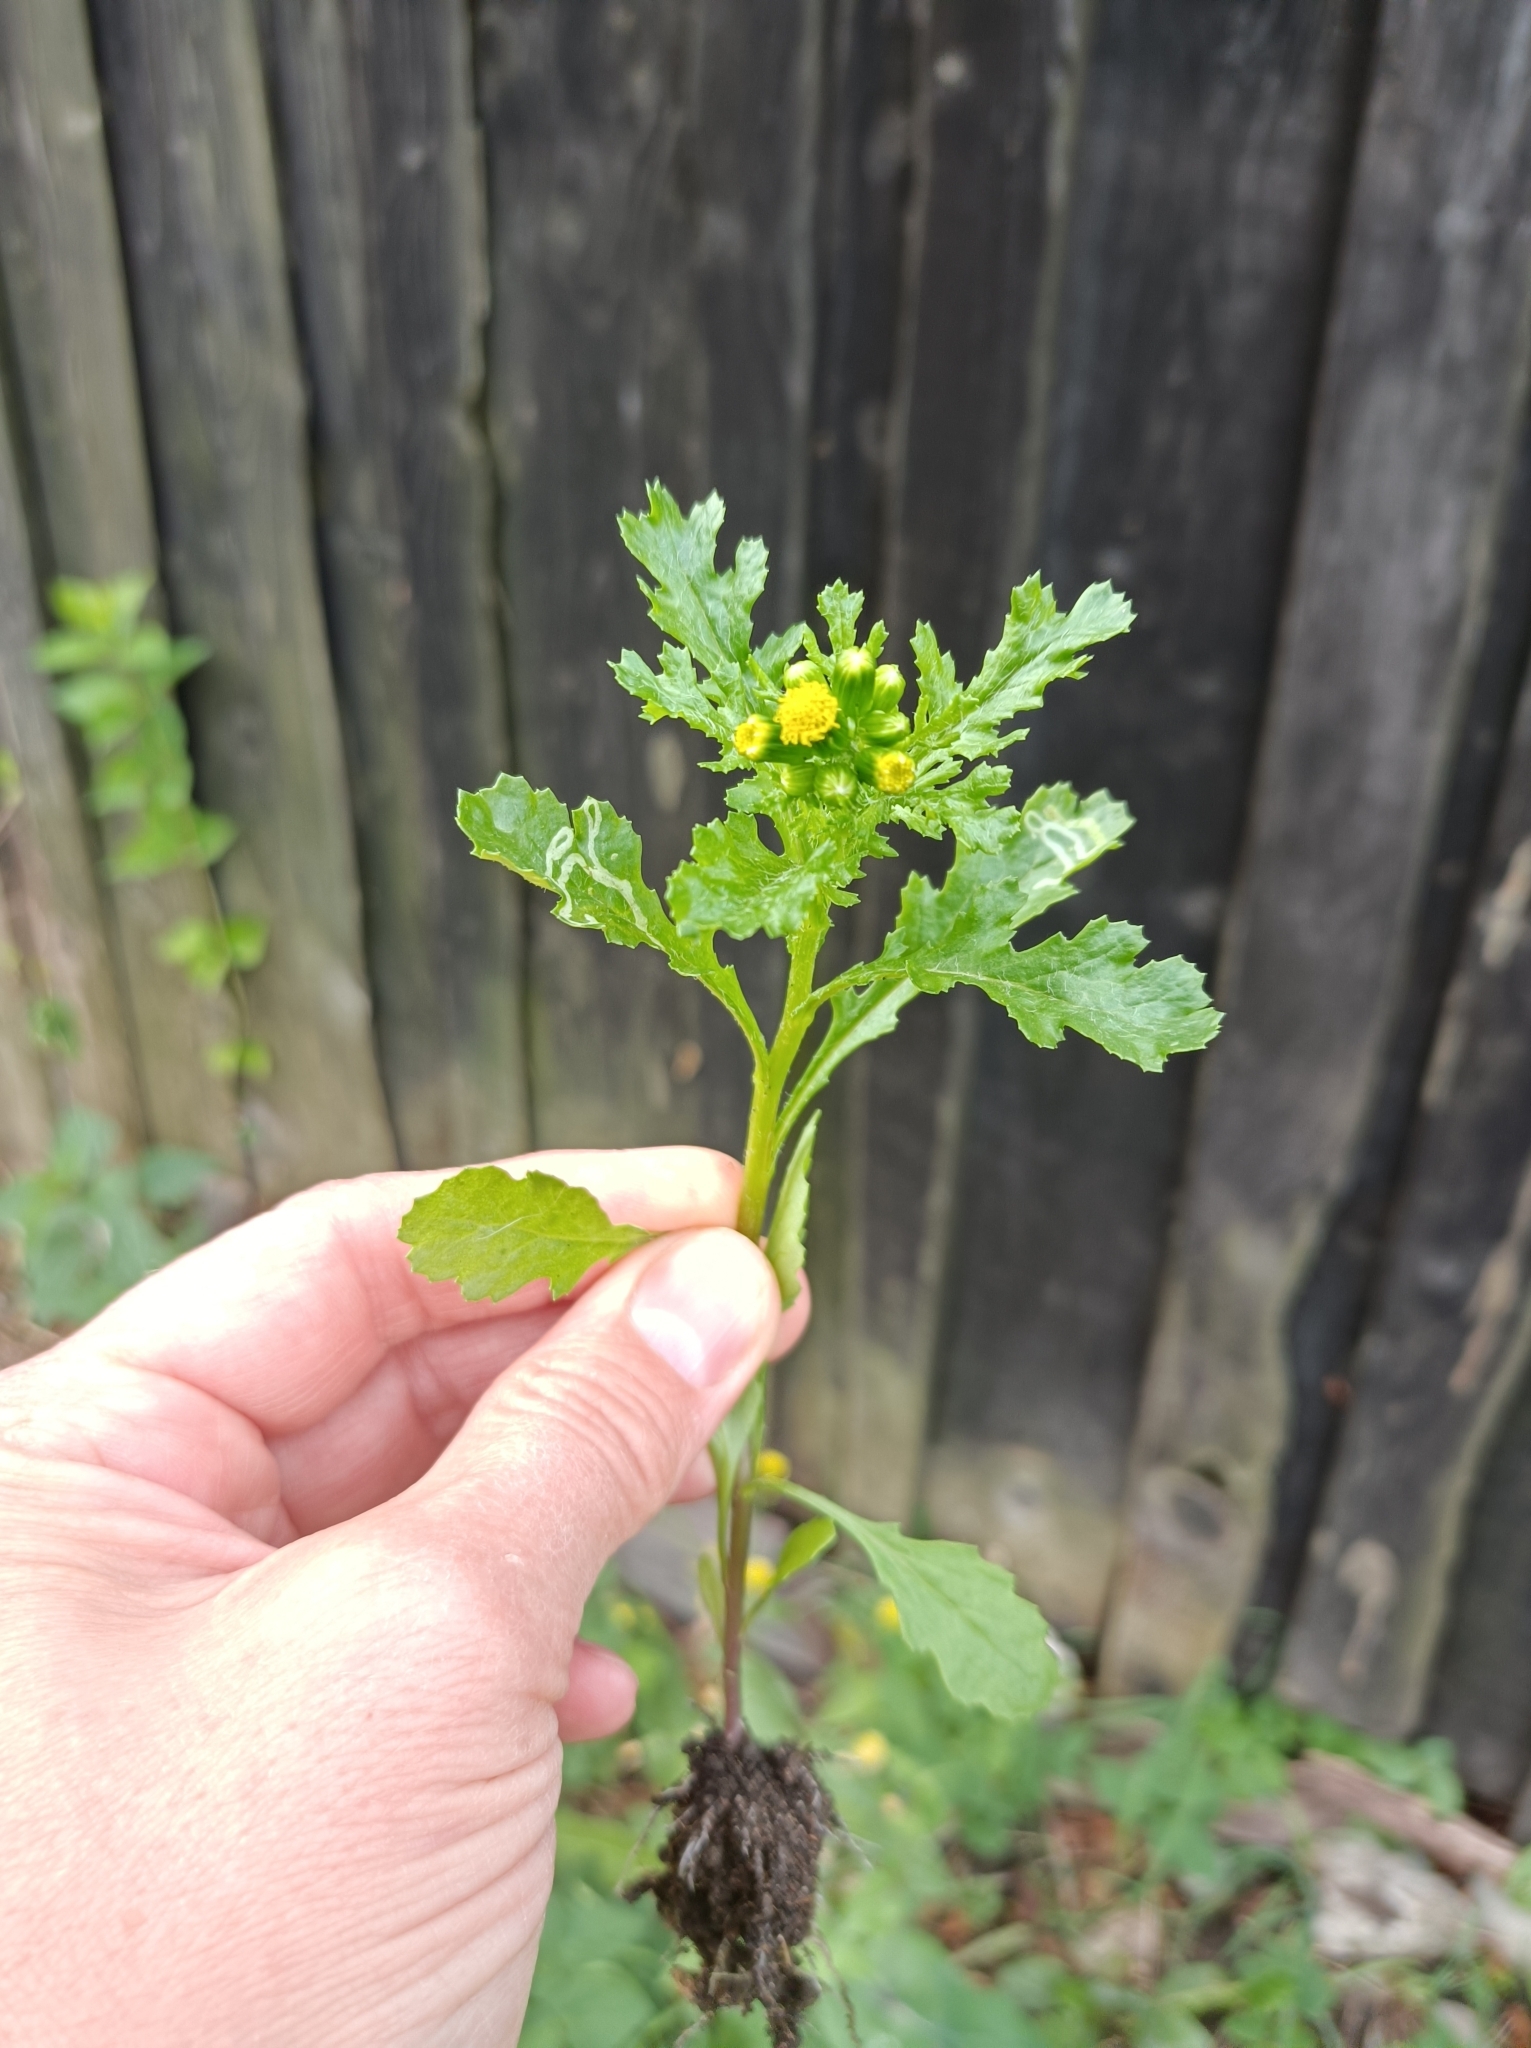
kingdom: Plantae
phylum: Tracheophyta
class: Magnoliopsida
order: Asterales
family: Asteraceae
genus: Senecio
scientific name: Senecio vulgaris
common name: Old-man-in-the-spring
